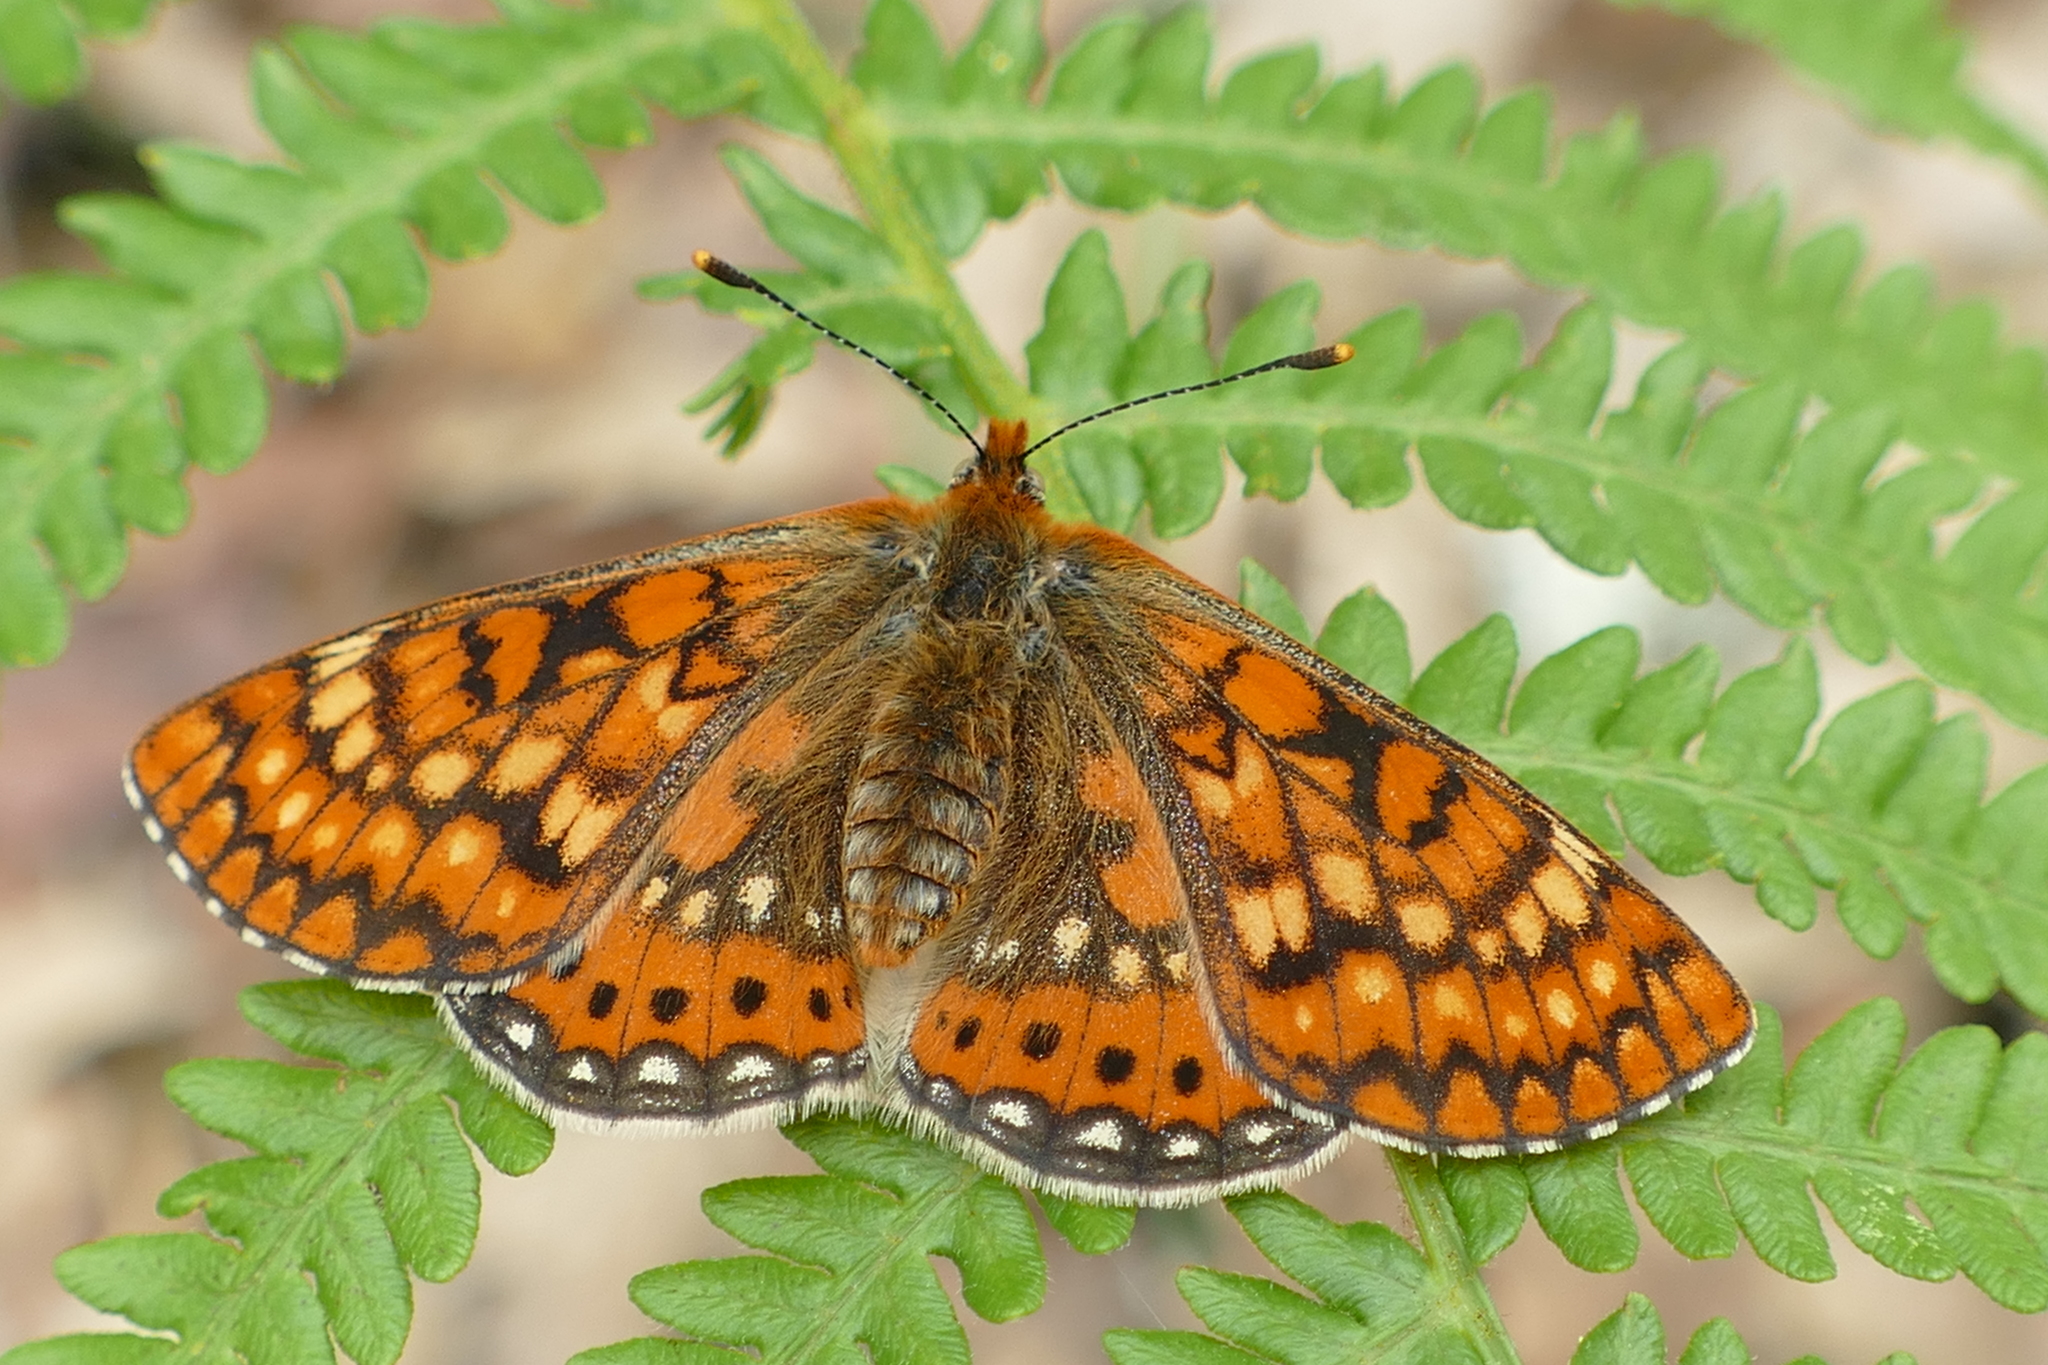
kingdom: Animalia
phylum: Arthropoda
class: Insecta
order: Lepidoptera
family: Nymphalidae
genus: Euphydryas
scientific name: Euphydryas aurinia
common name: Marsh fritillary
